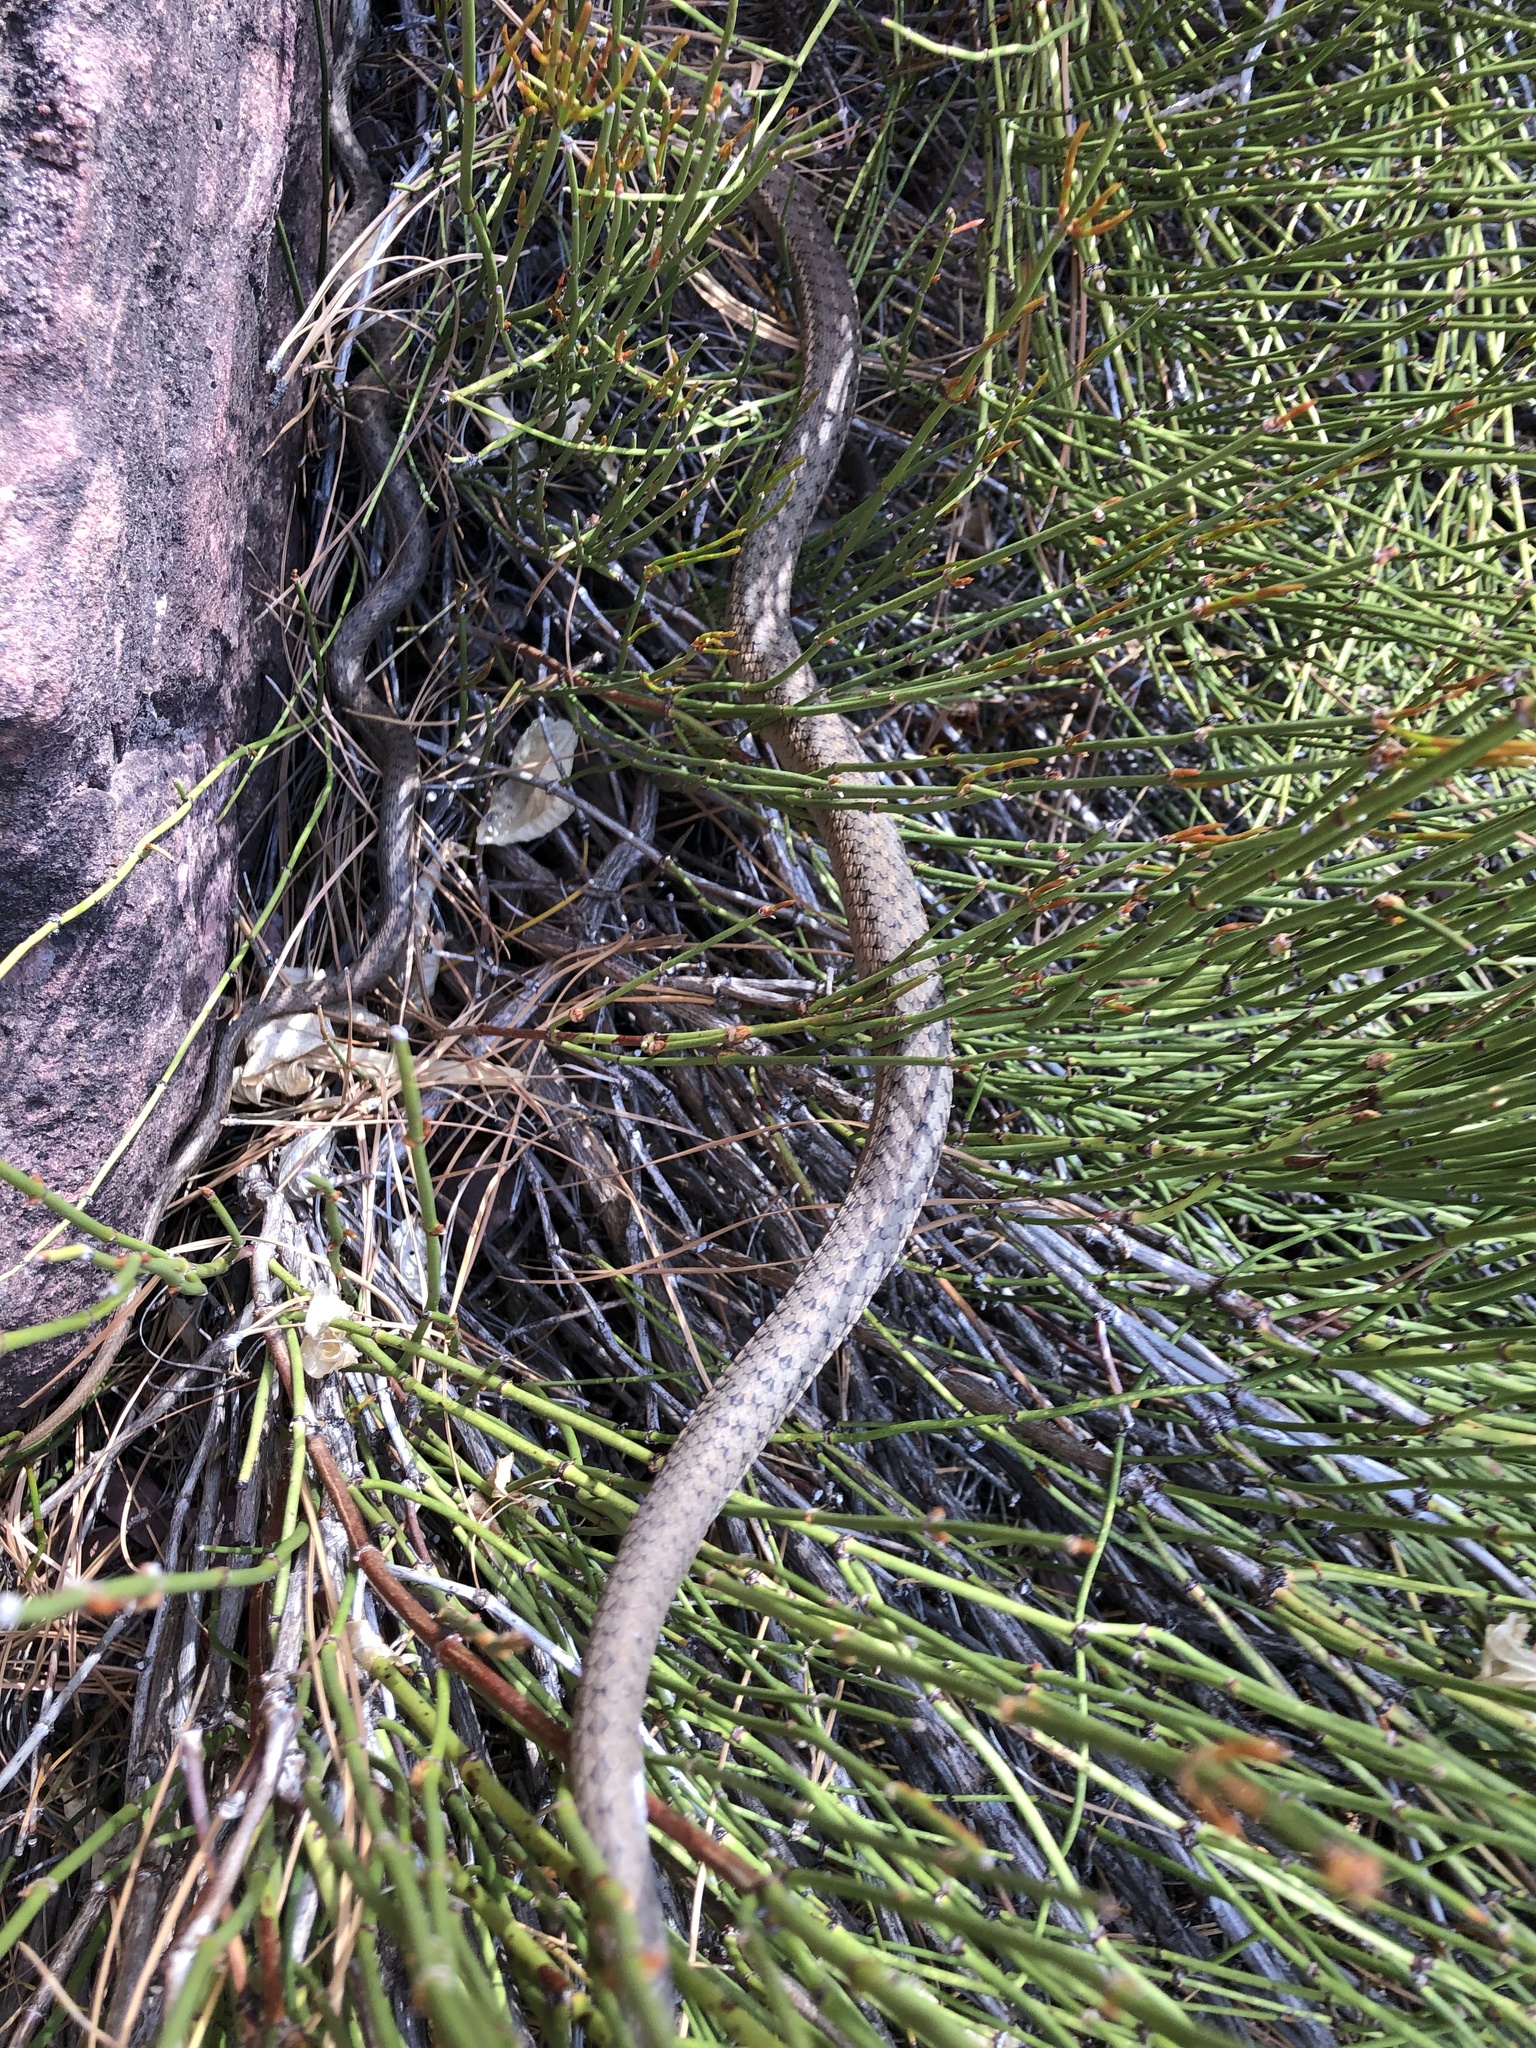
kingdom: Animalia
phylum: Chordata
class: Squamata
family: Colubridae
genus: Thamnophis
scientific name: Thamnophis elegans
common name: Western terrestrial garter snake
